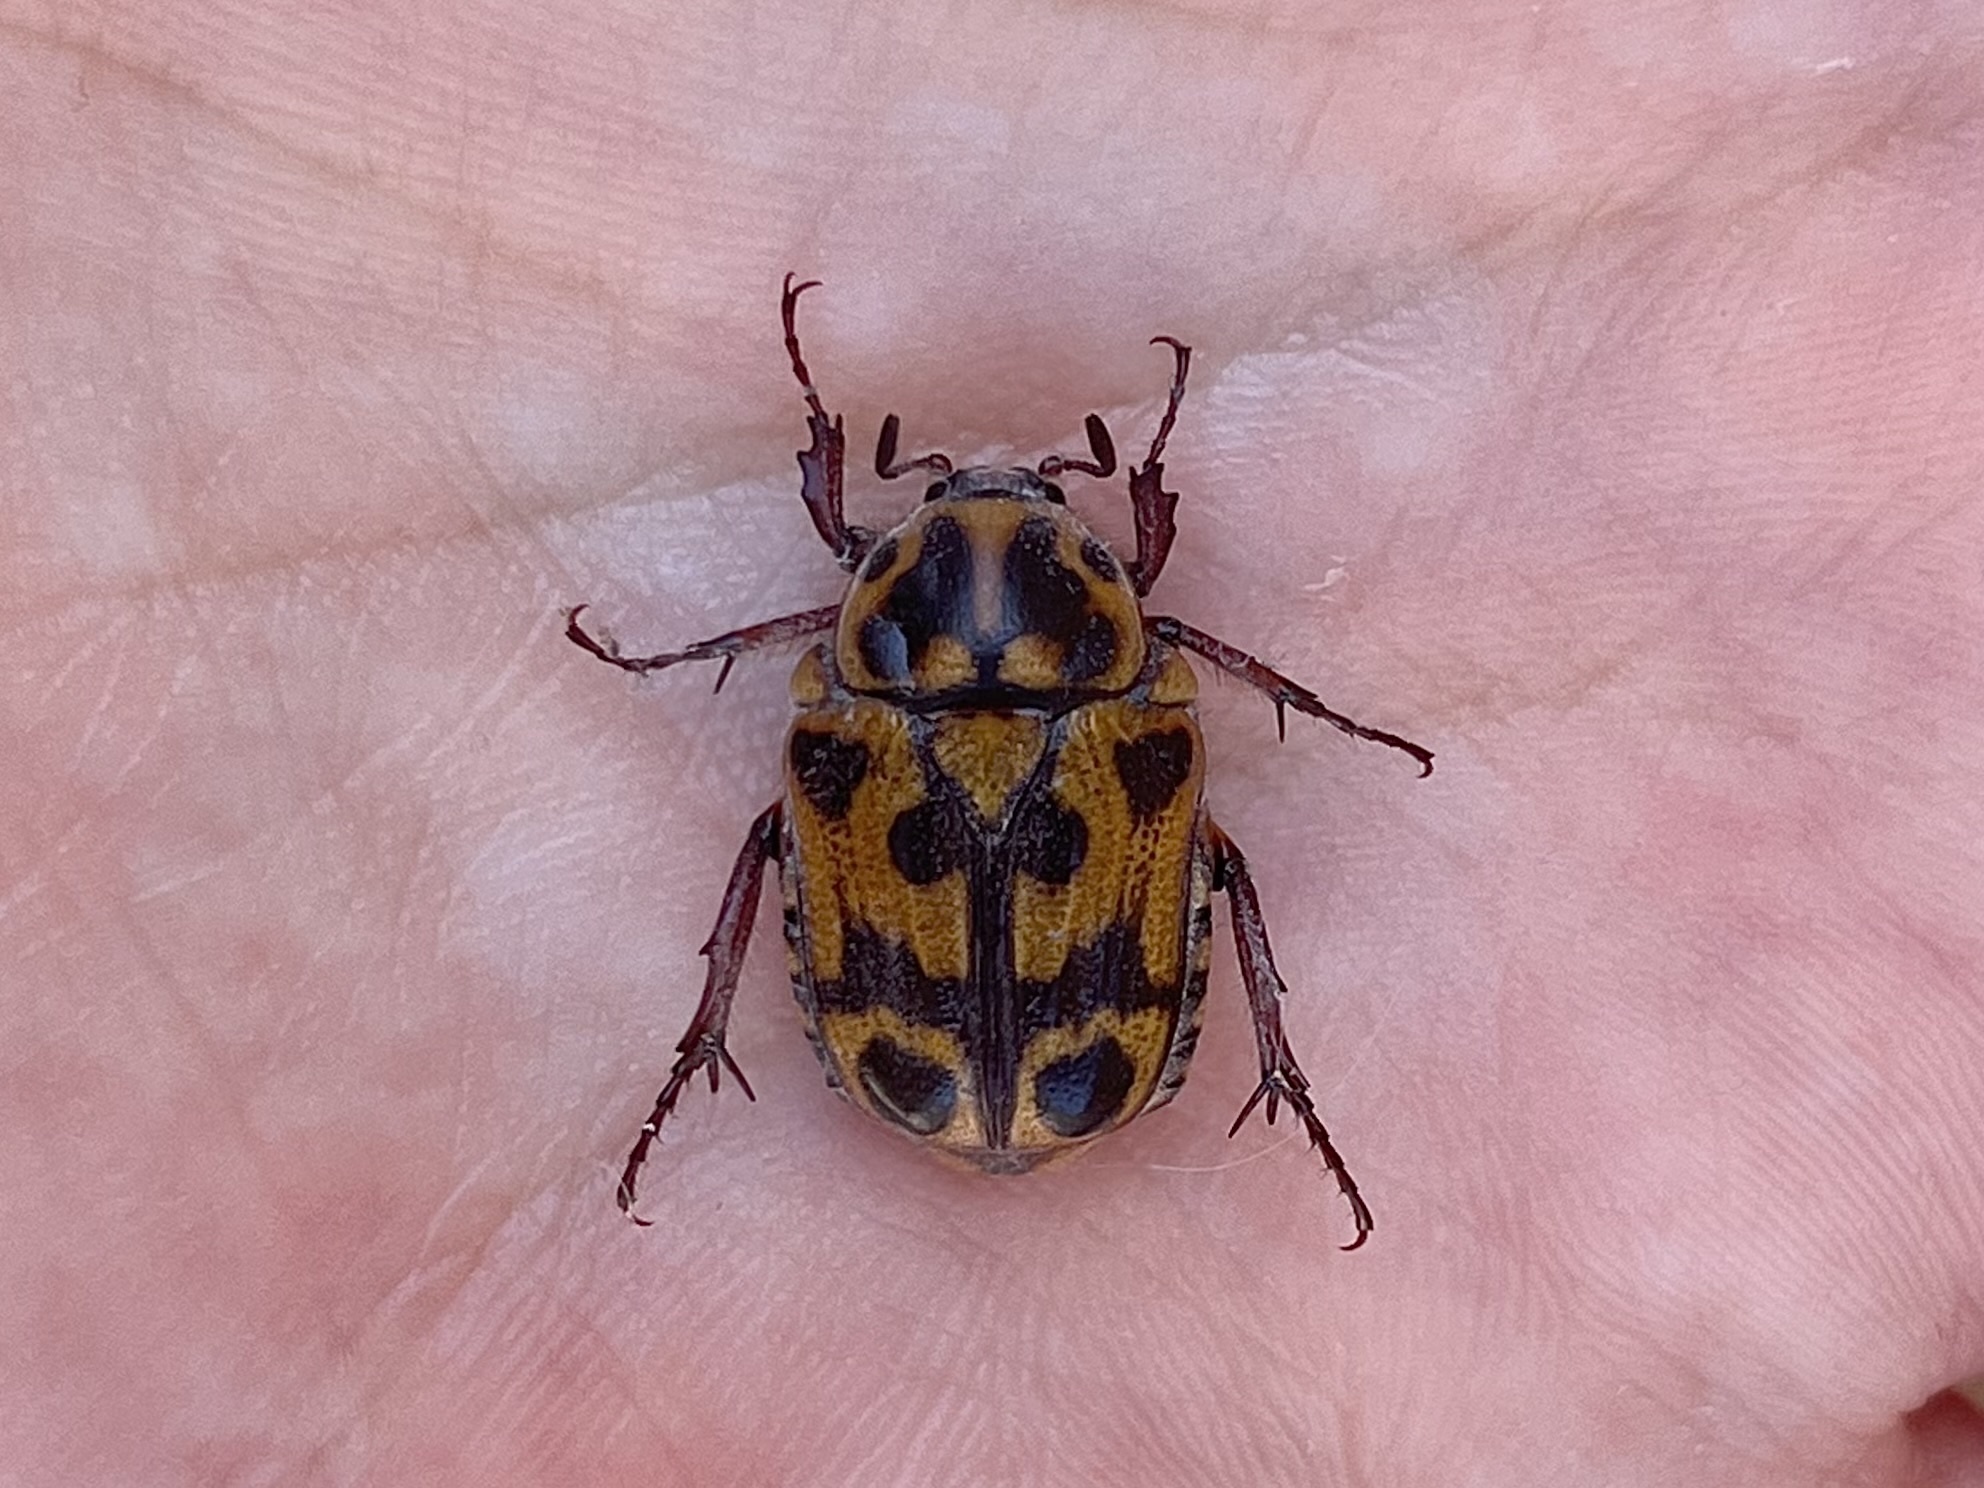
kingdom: Animalia
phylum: Arthropoda
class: Insecta
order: Coleoptera
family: Scarabaeidae
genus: Lyraphora
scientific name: Lyraphora obliquata
